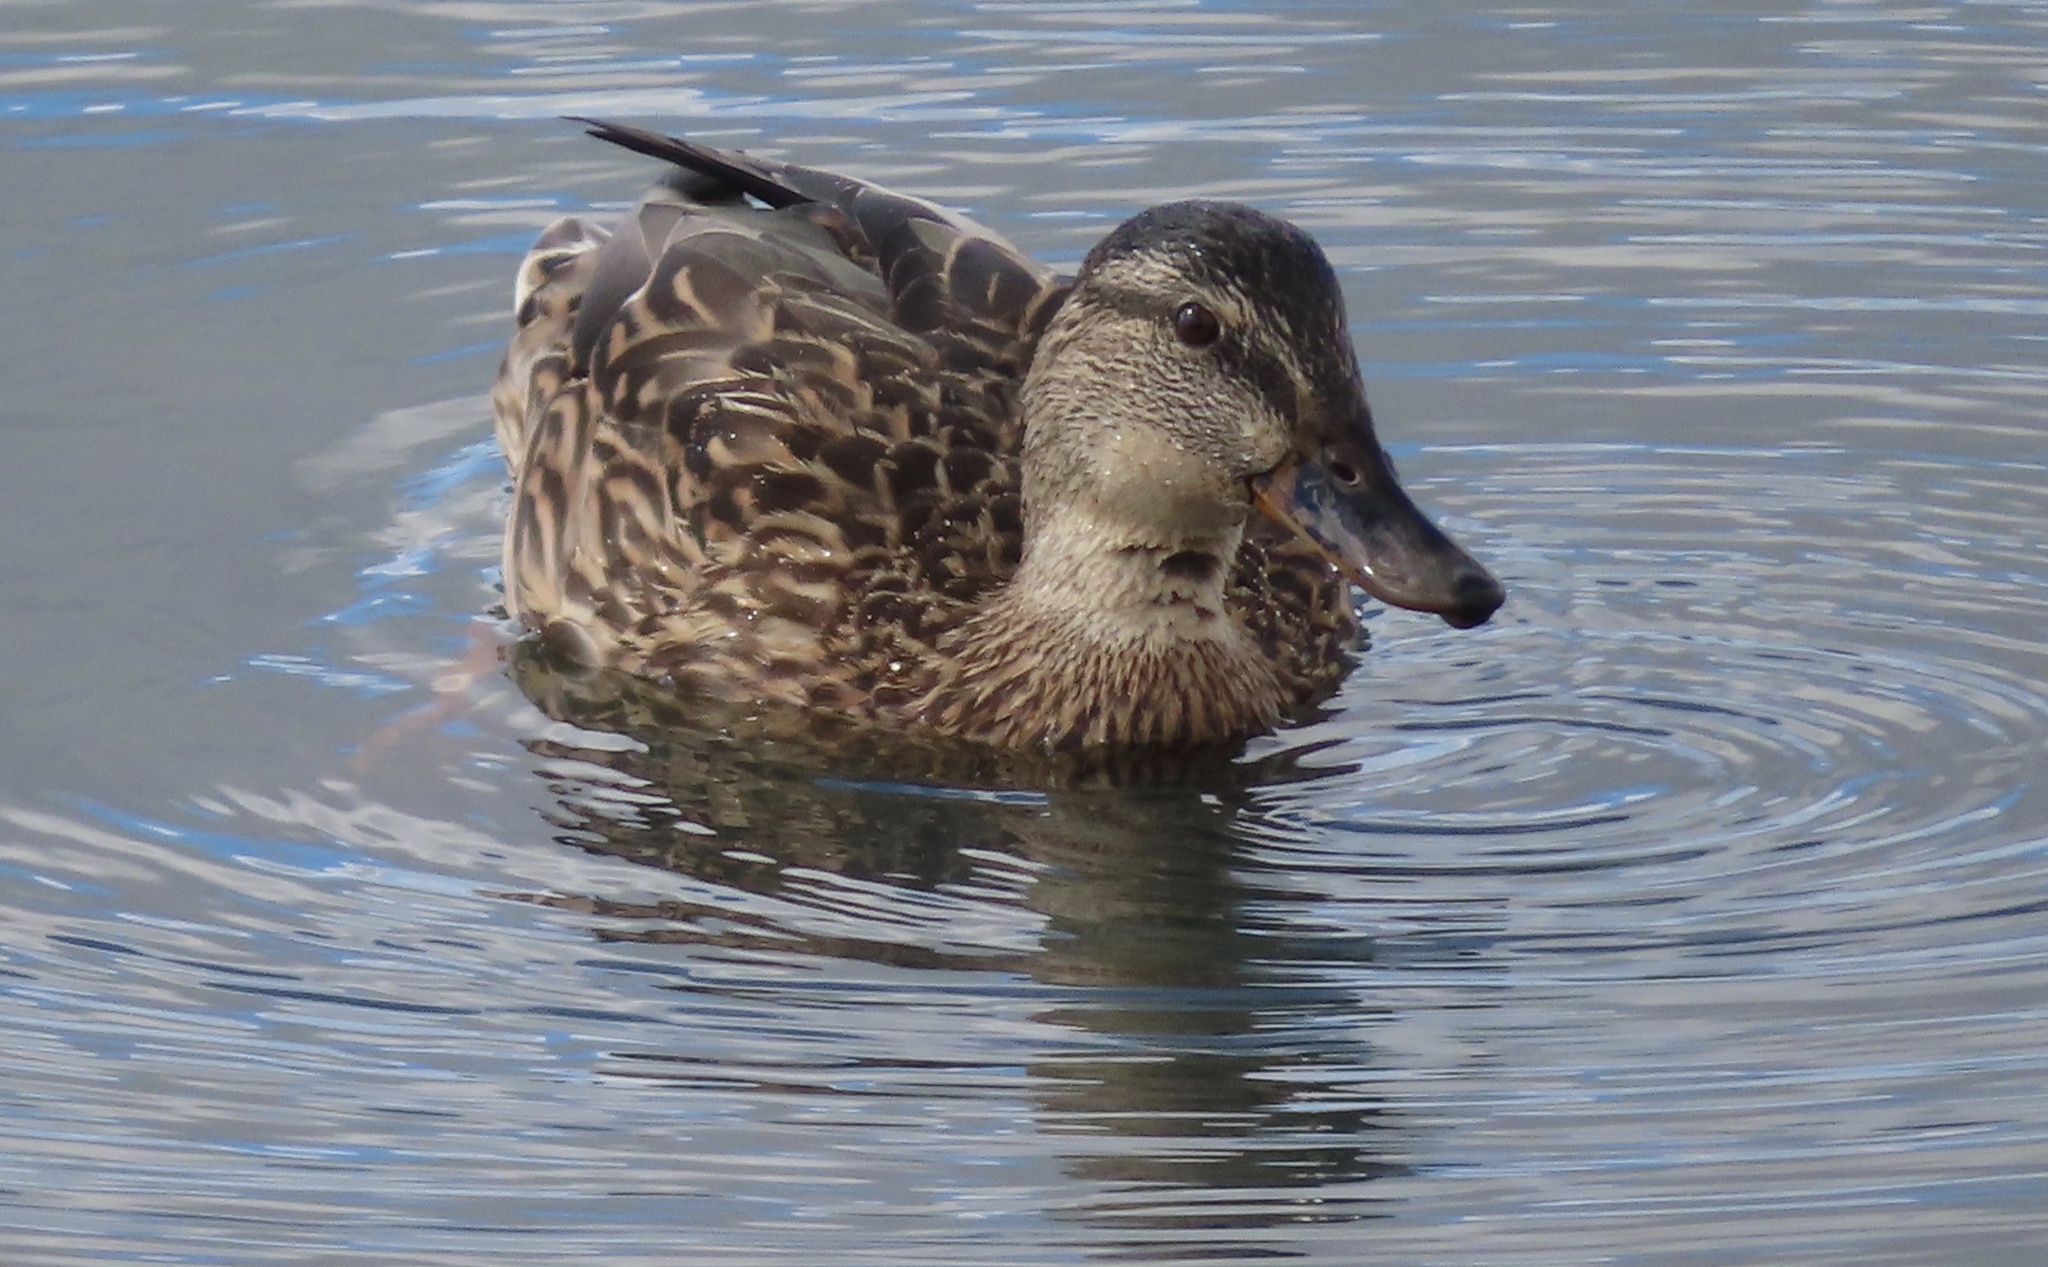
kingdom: Animalia
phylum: Chordata
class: Aves
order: Anseriformes
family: Anatidae
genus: Anas
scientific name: Anas platyrhynchos
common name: Mallard
